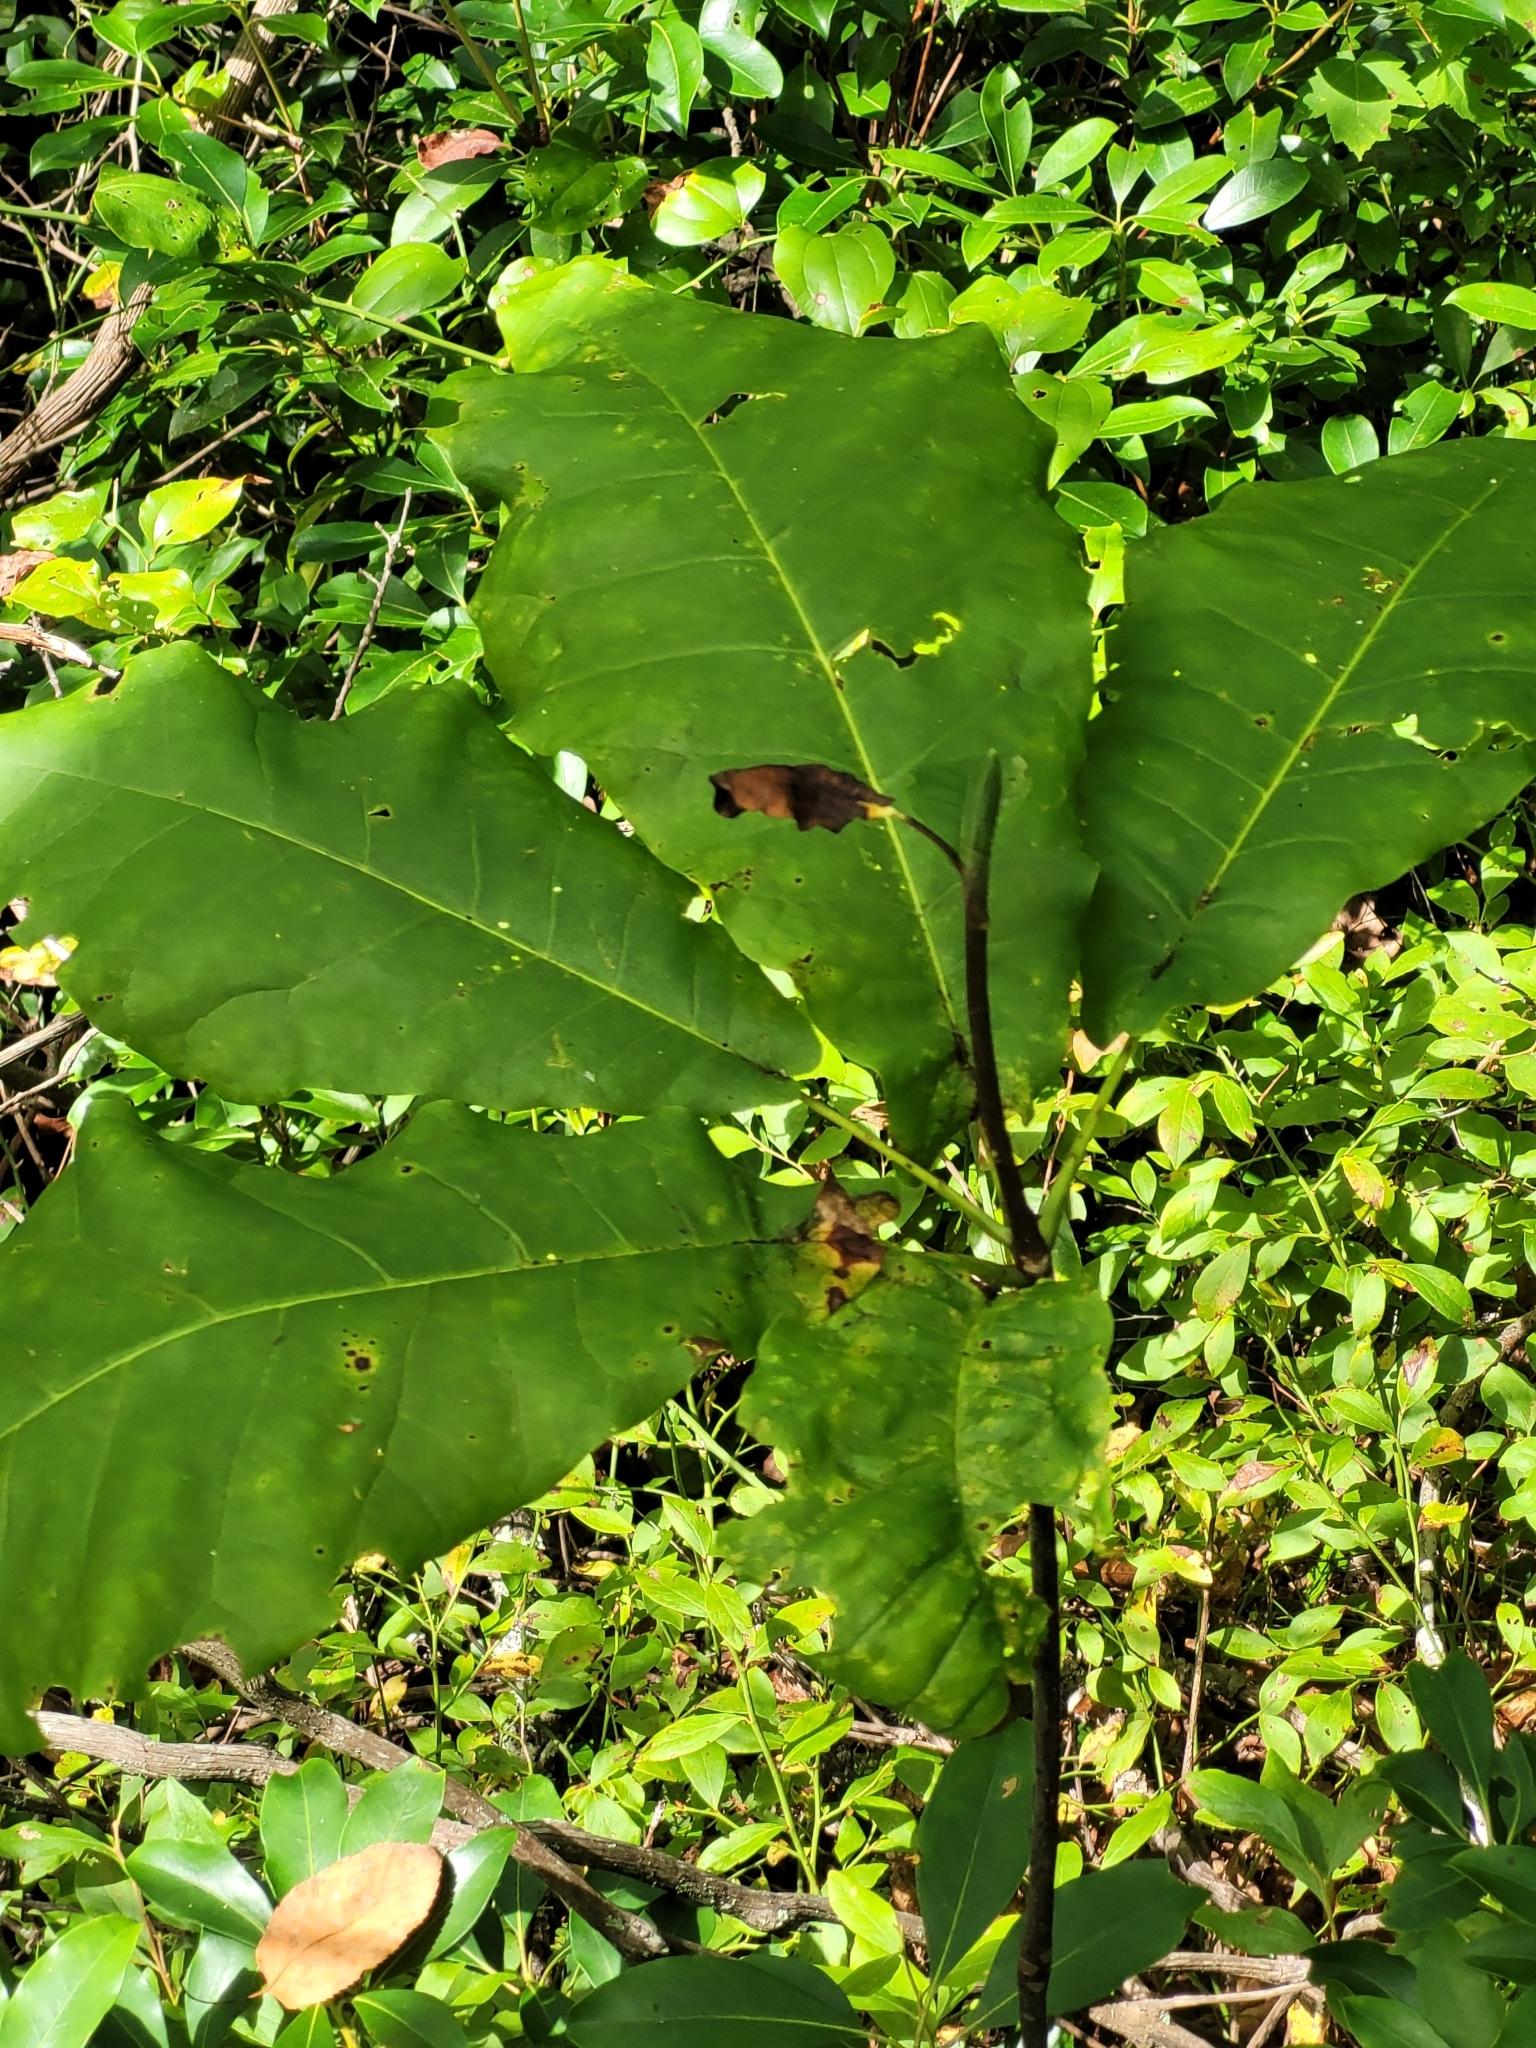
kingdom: Plantae
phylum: Tracheophyta
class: Magnoliopsida
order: Magnoliales
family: Magnoliaceae
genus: Magnolia
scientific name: Magnolia fraseri
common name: Fraser's magnolia
